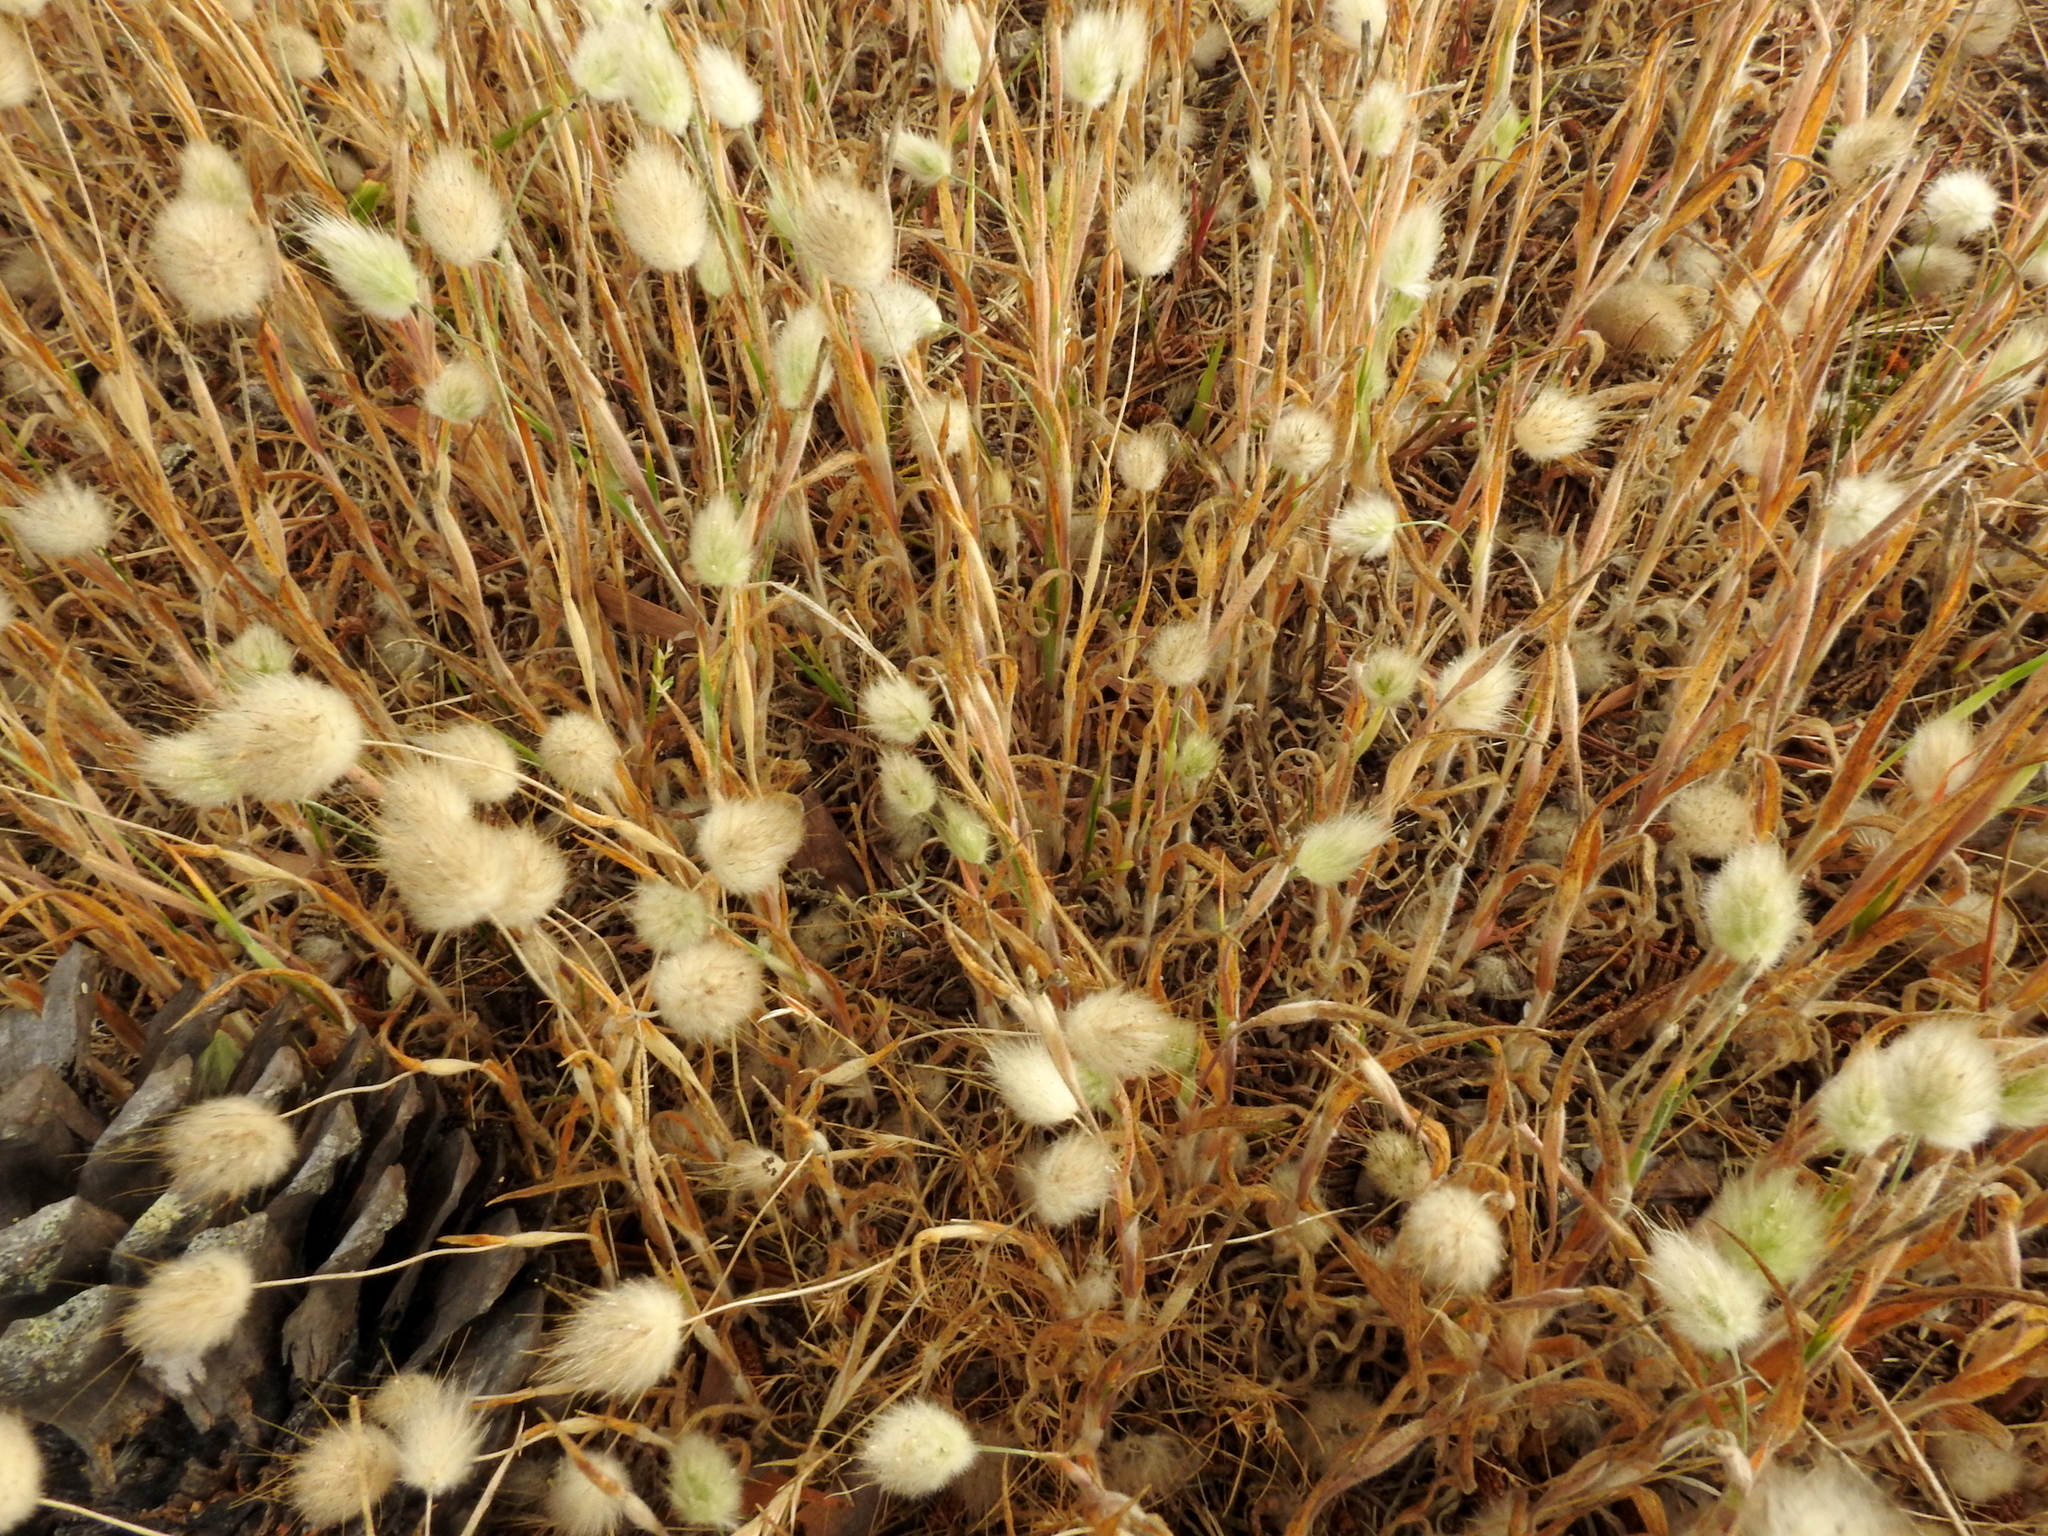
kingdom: Plantae
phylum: Tracheophyta
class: Liliopsida
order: Poales
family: Poaceae
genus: Lagurus
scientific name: Lagurus ovatus
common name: Hare's-tail
